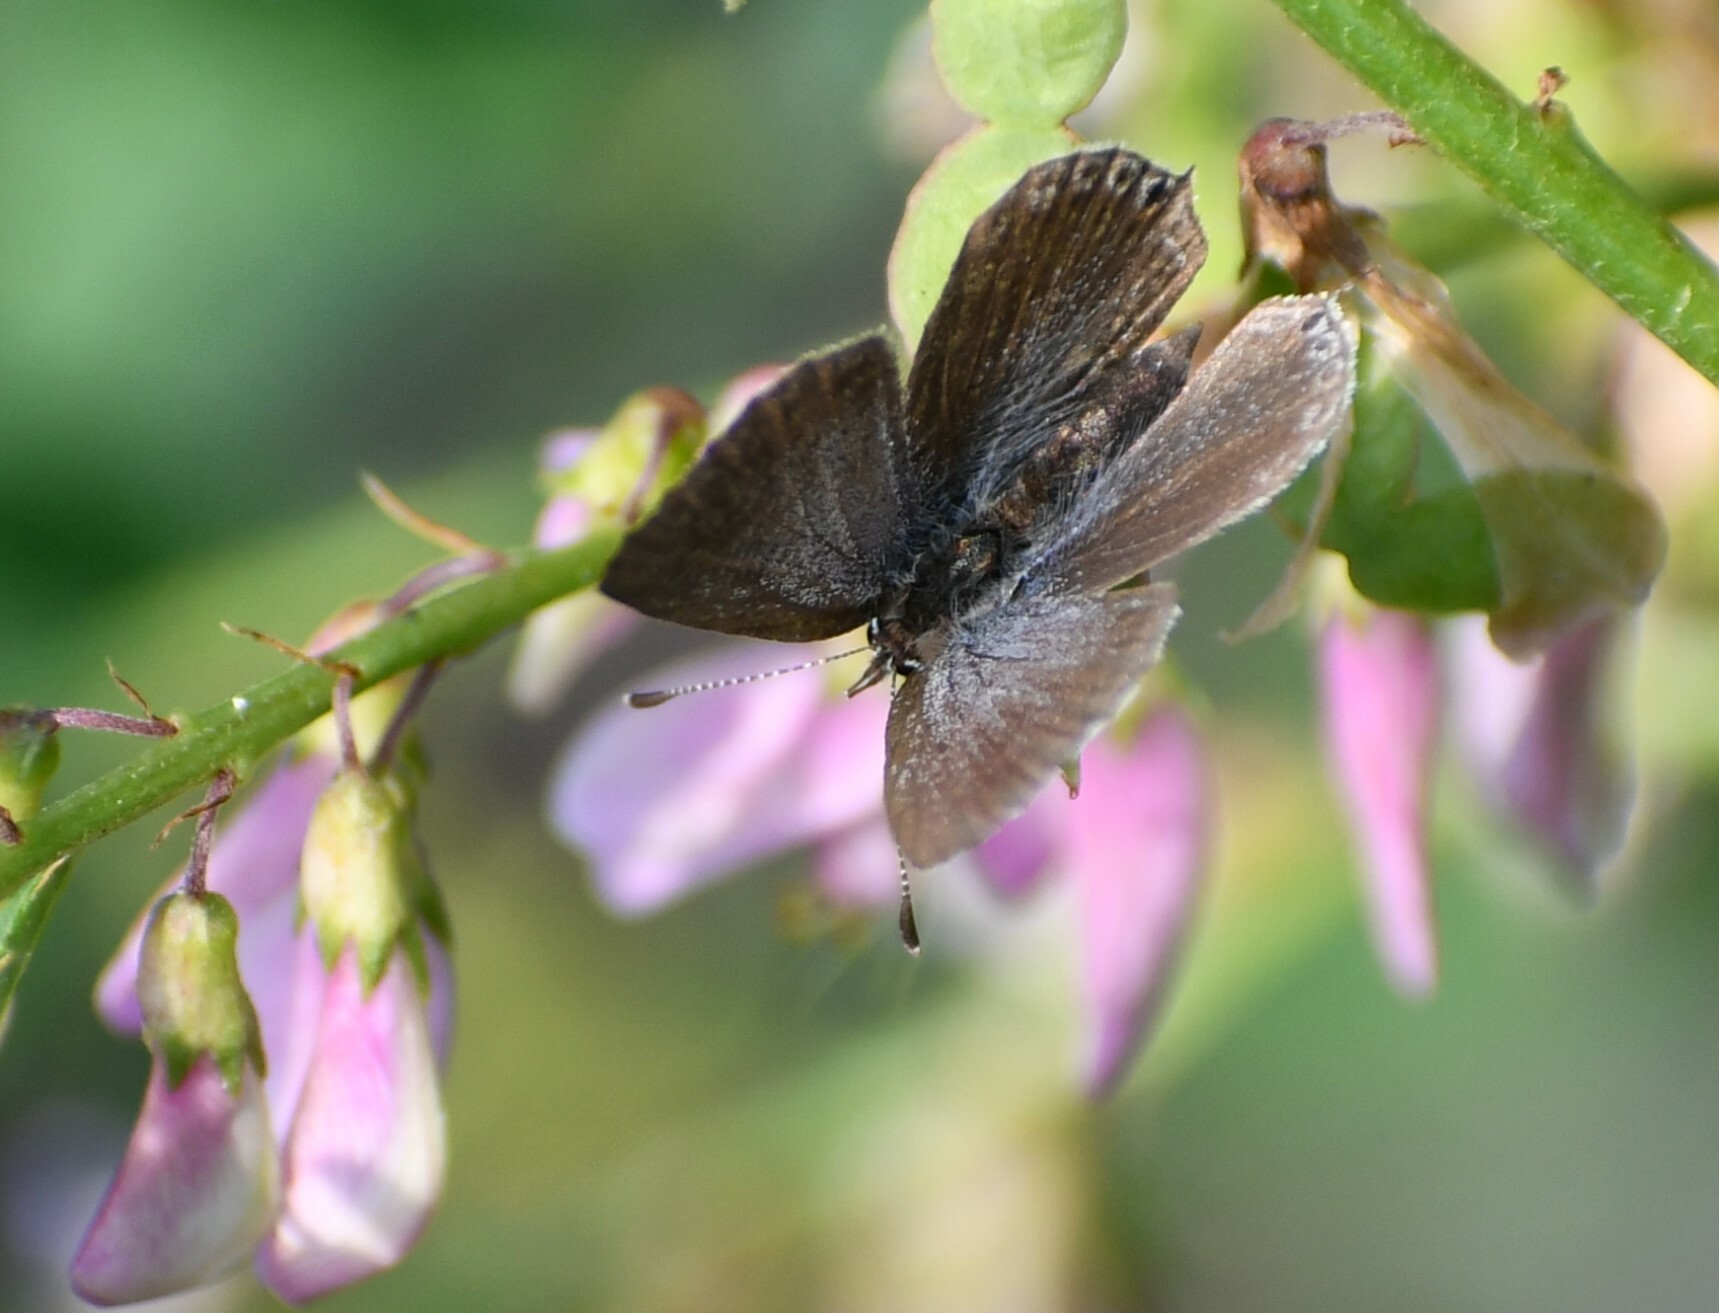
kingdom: Animalia
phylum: Arthropoda
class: Insecta
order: Lepidoptera
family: Lycaenidae
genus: Elkalyce
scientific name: Elkalyce amyntula
